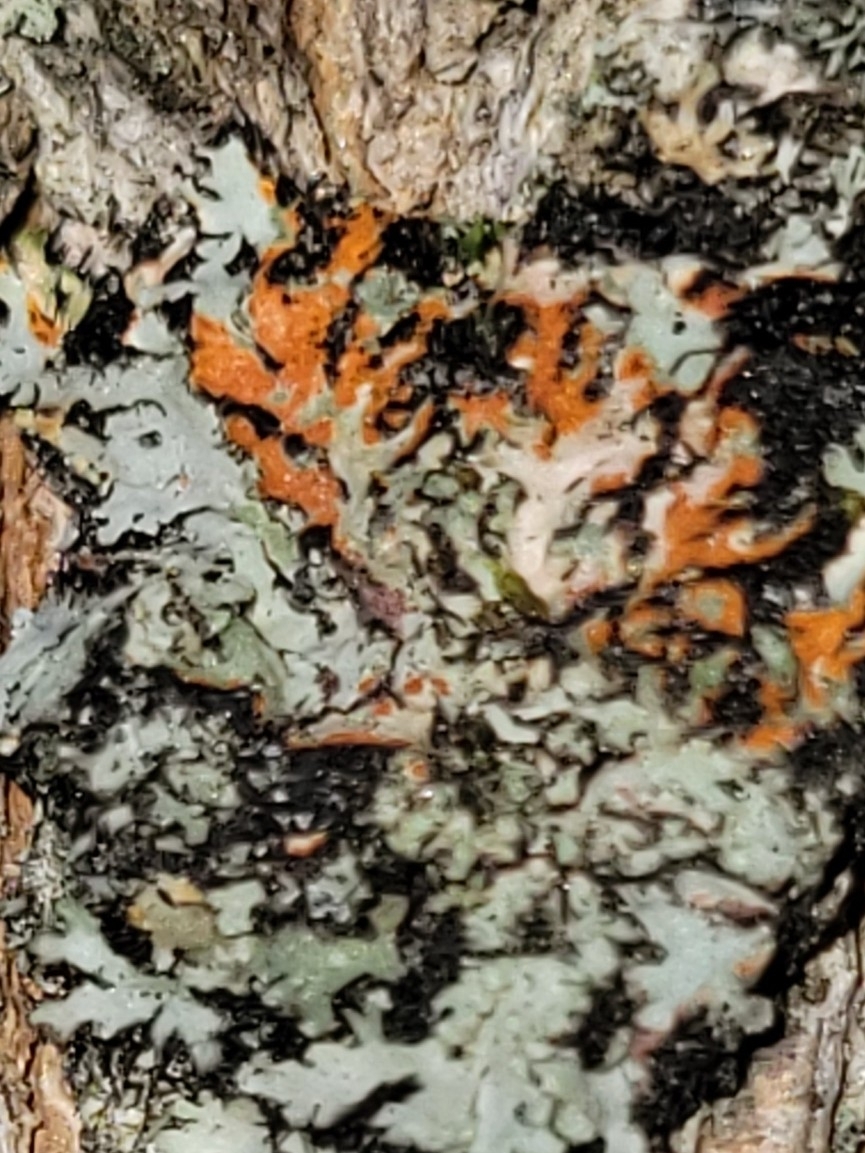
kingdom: Fungi
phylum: Ascomycota
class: Lecanoromycetes
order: Caliciales
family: Physciaceae
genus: Phaeophyscia
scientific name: Phaeophyscia rubropulchra
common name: Orange-cored shadow lichen
